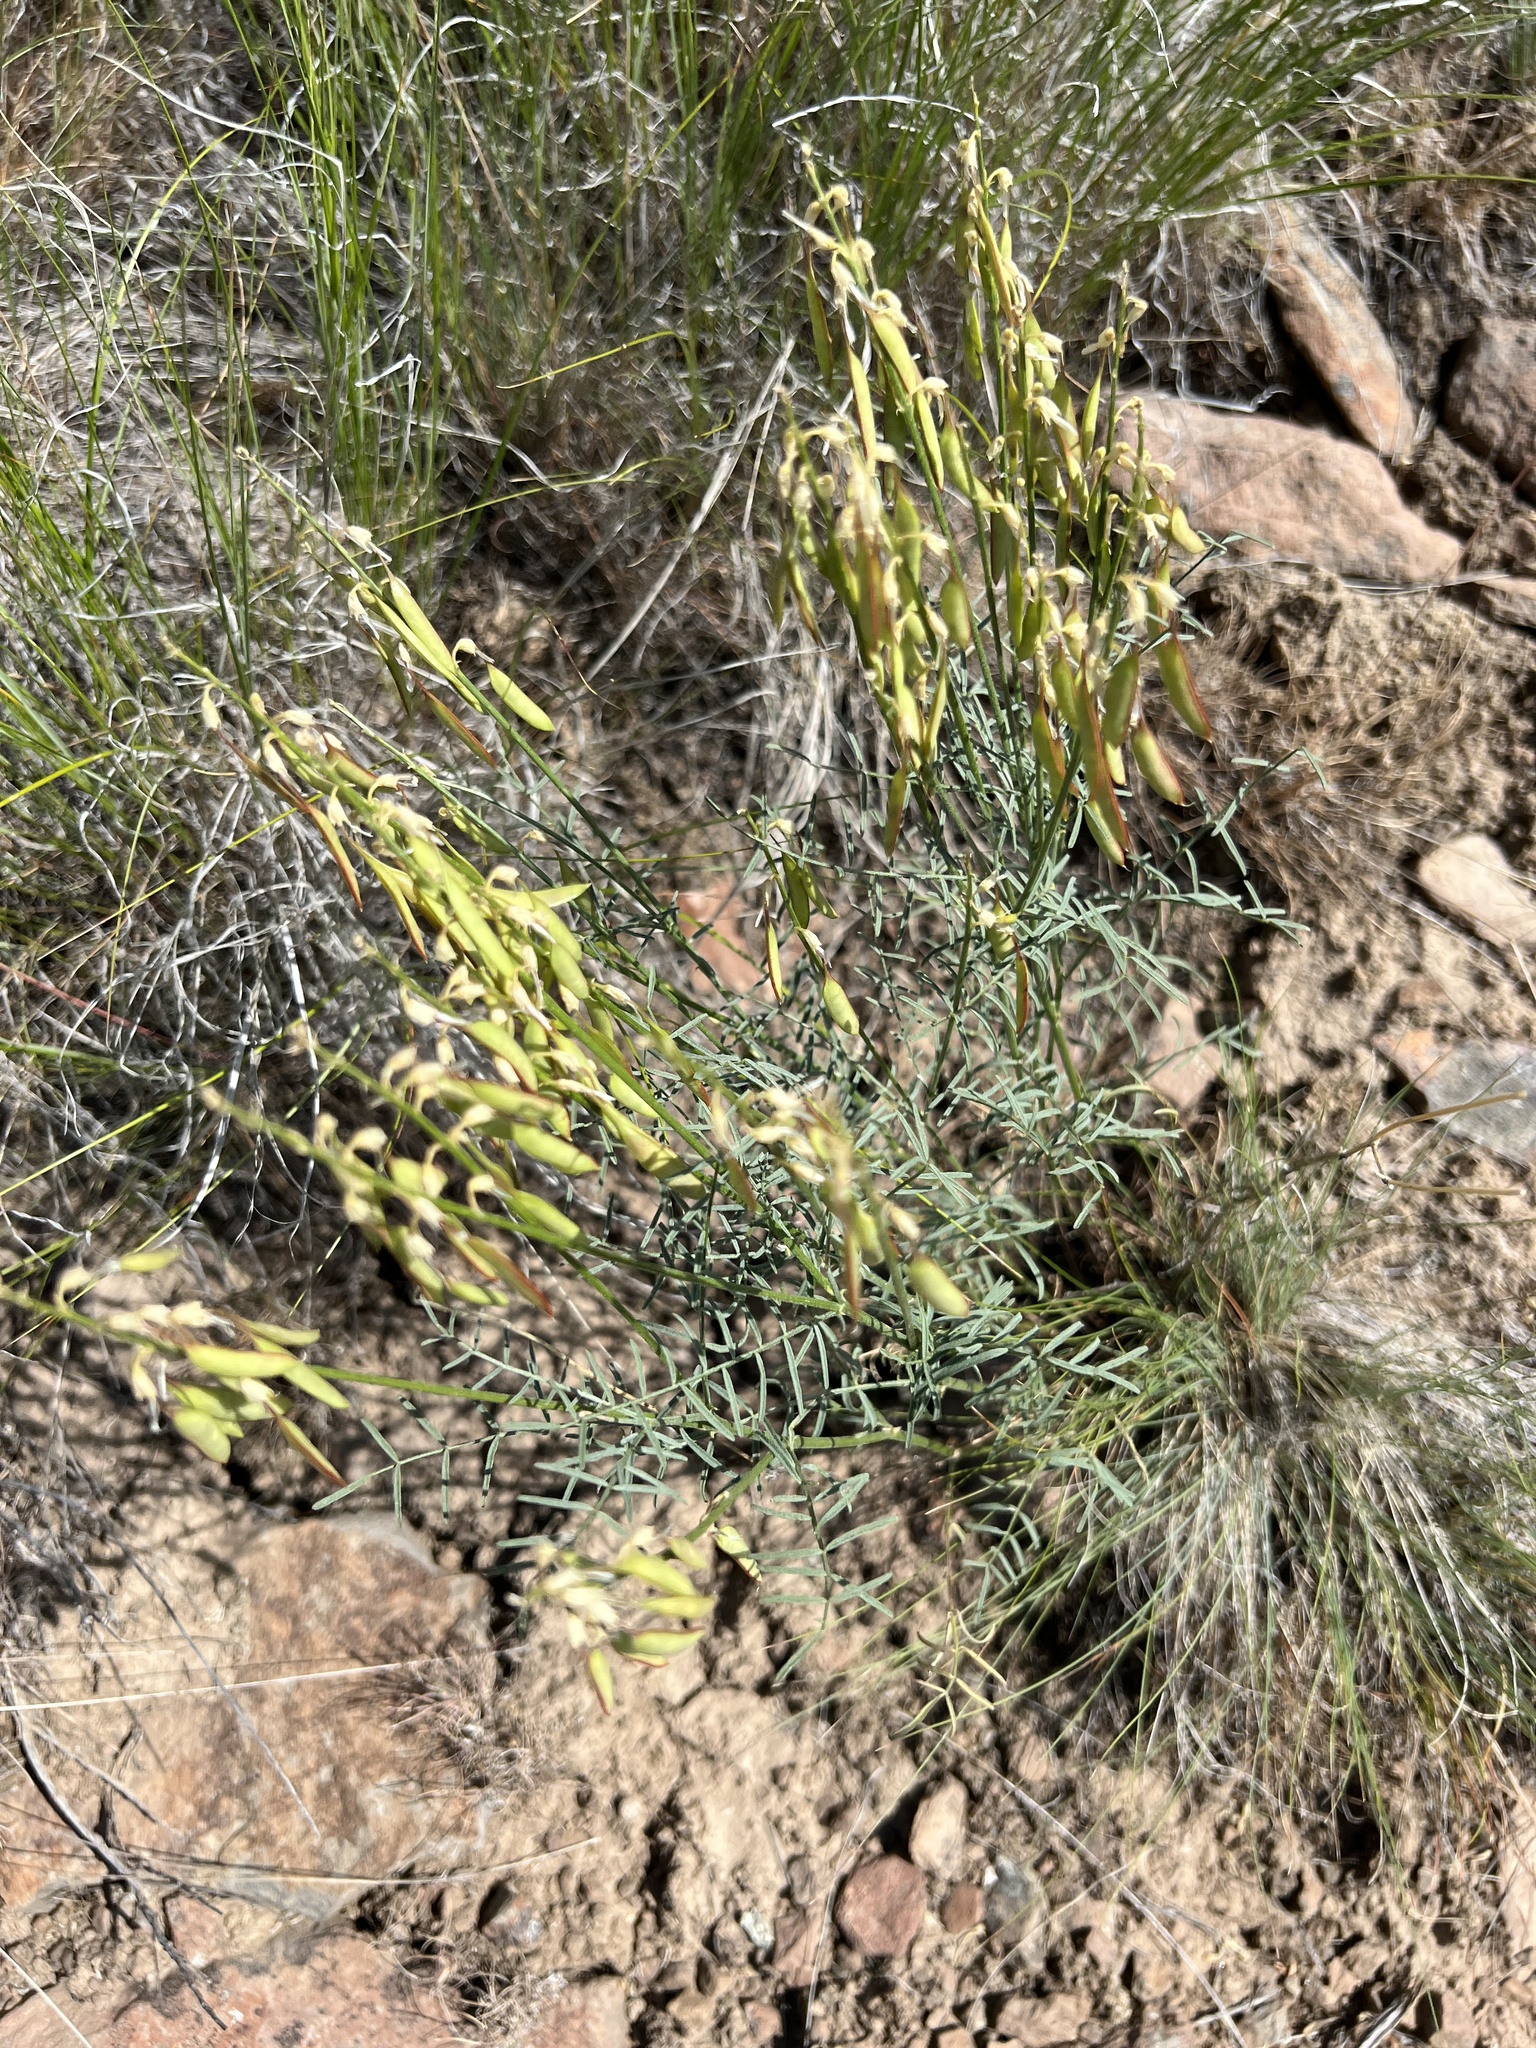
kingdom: Plantae
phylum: Tracheophyta
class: Magnoliopsida
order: Fabales
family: Fabaceae
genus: Astragalus
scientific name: Astragalus filipes
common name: Basalt milk-vetch
